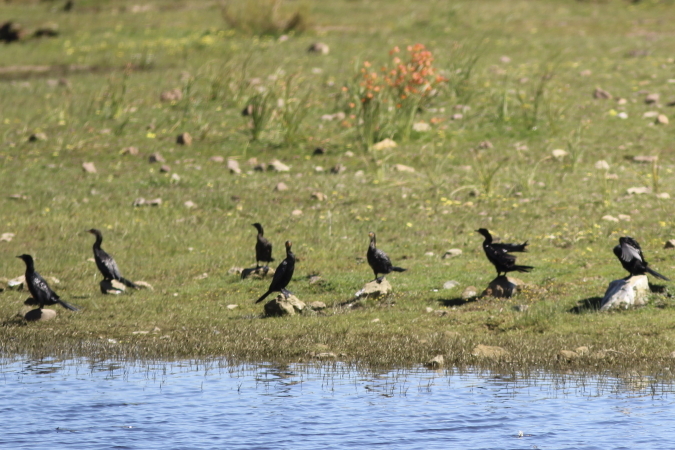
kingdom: Animalia
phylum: Chordata
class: Aves
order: Suliformes
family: Phalacrocoracidae
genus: Microcarbo
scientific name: Microcarbo africanus
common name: Long-tailed cormorant
